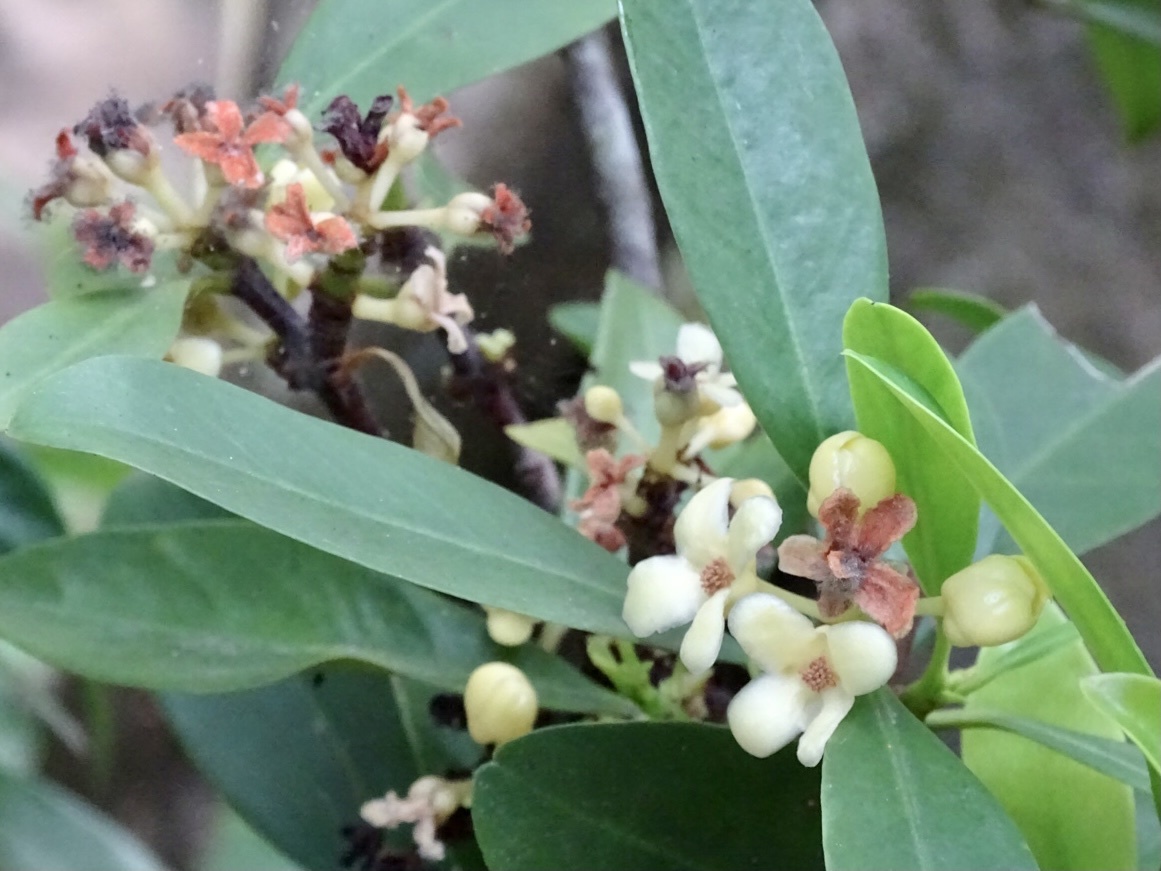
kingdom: Plantae
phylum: Tracheophyta
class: Magnoliopsida
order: Malpighiales
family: Clusiaceae
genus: Garcinia
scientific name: Garcinia oblongifolia
